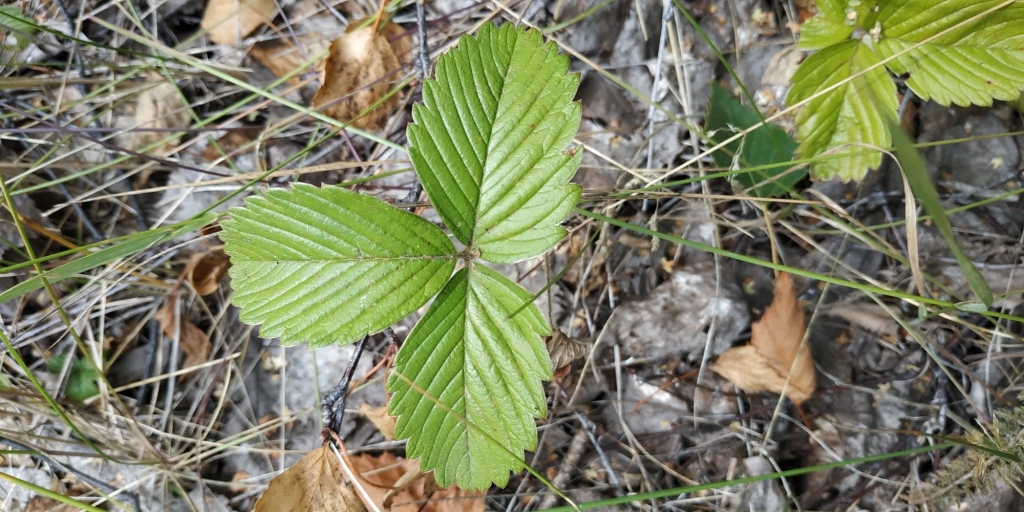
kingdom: Plantae
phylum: Tracheophyta
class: Magnoliopsida
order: Rosales
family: Rosaceae
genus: Fragaria
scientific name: Fragaria viridis
